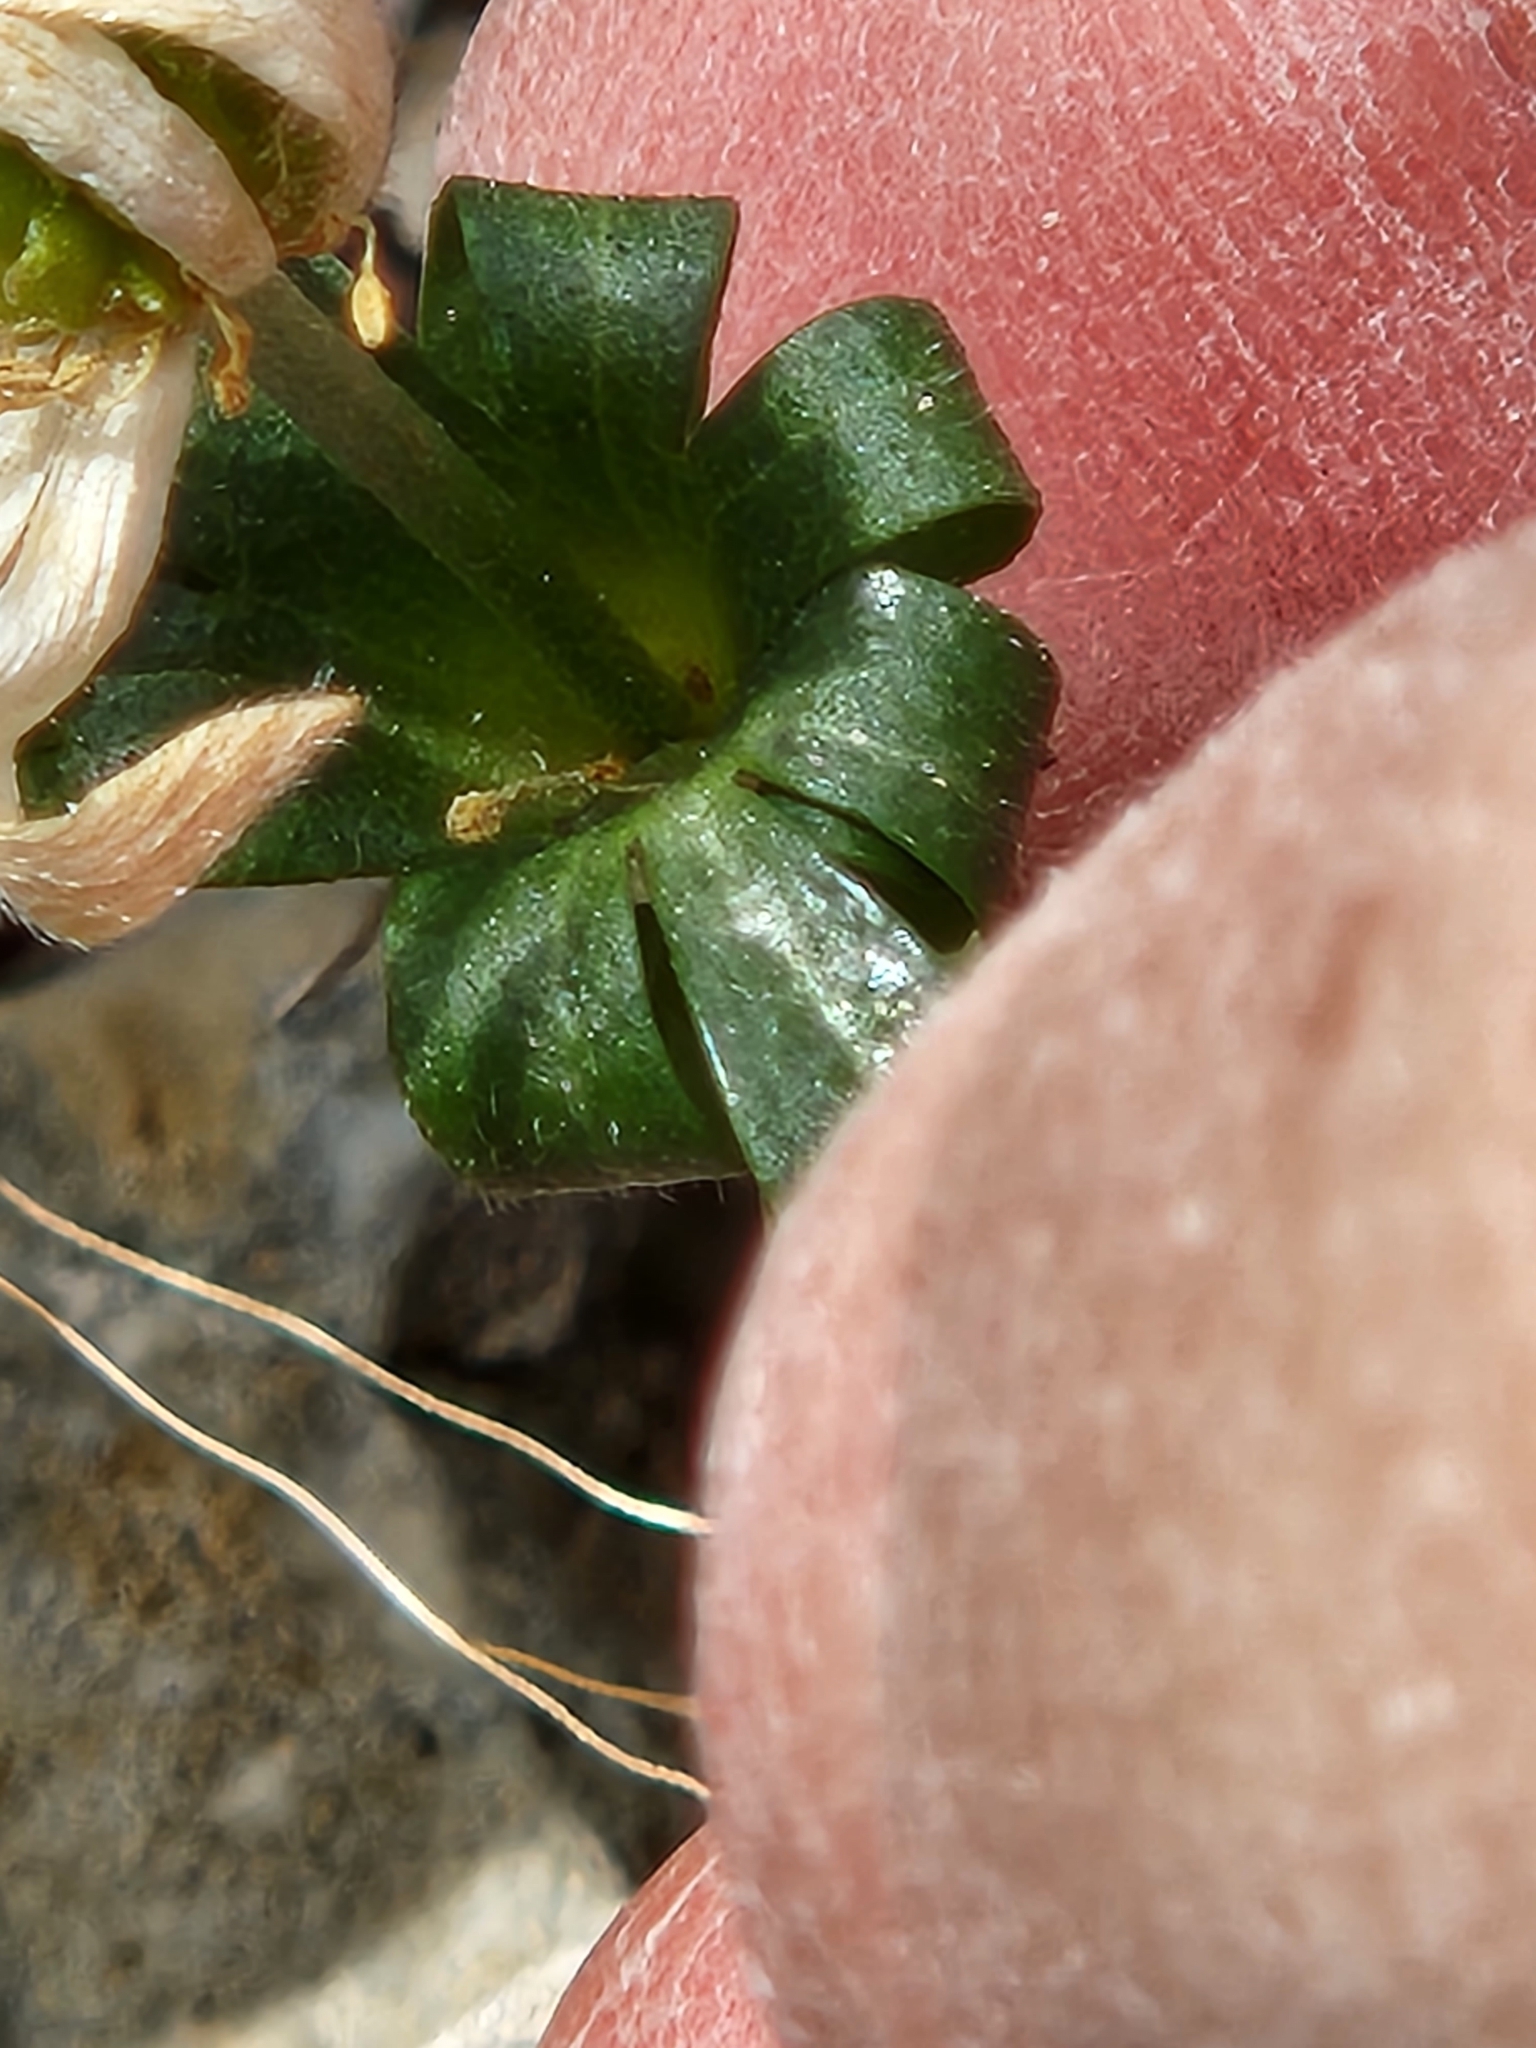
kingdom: Plantae
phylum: Tracheophyta
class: Magnoliopsida
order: Ranunculales
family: Ranunculaceae
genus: Anemone
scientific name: Anemone edwardsiana
